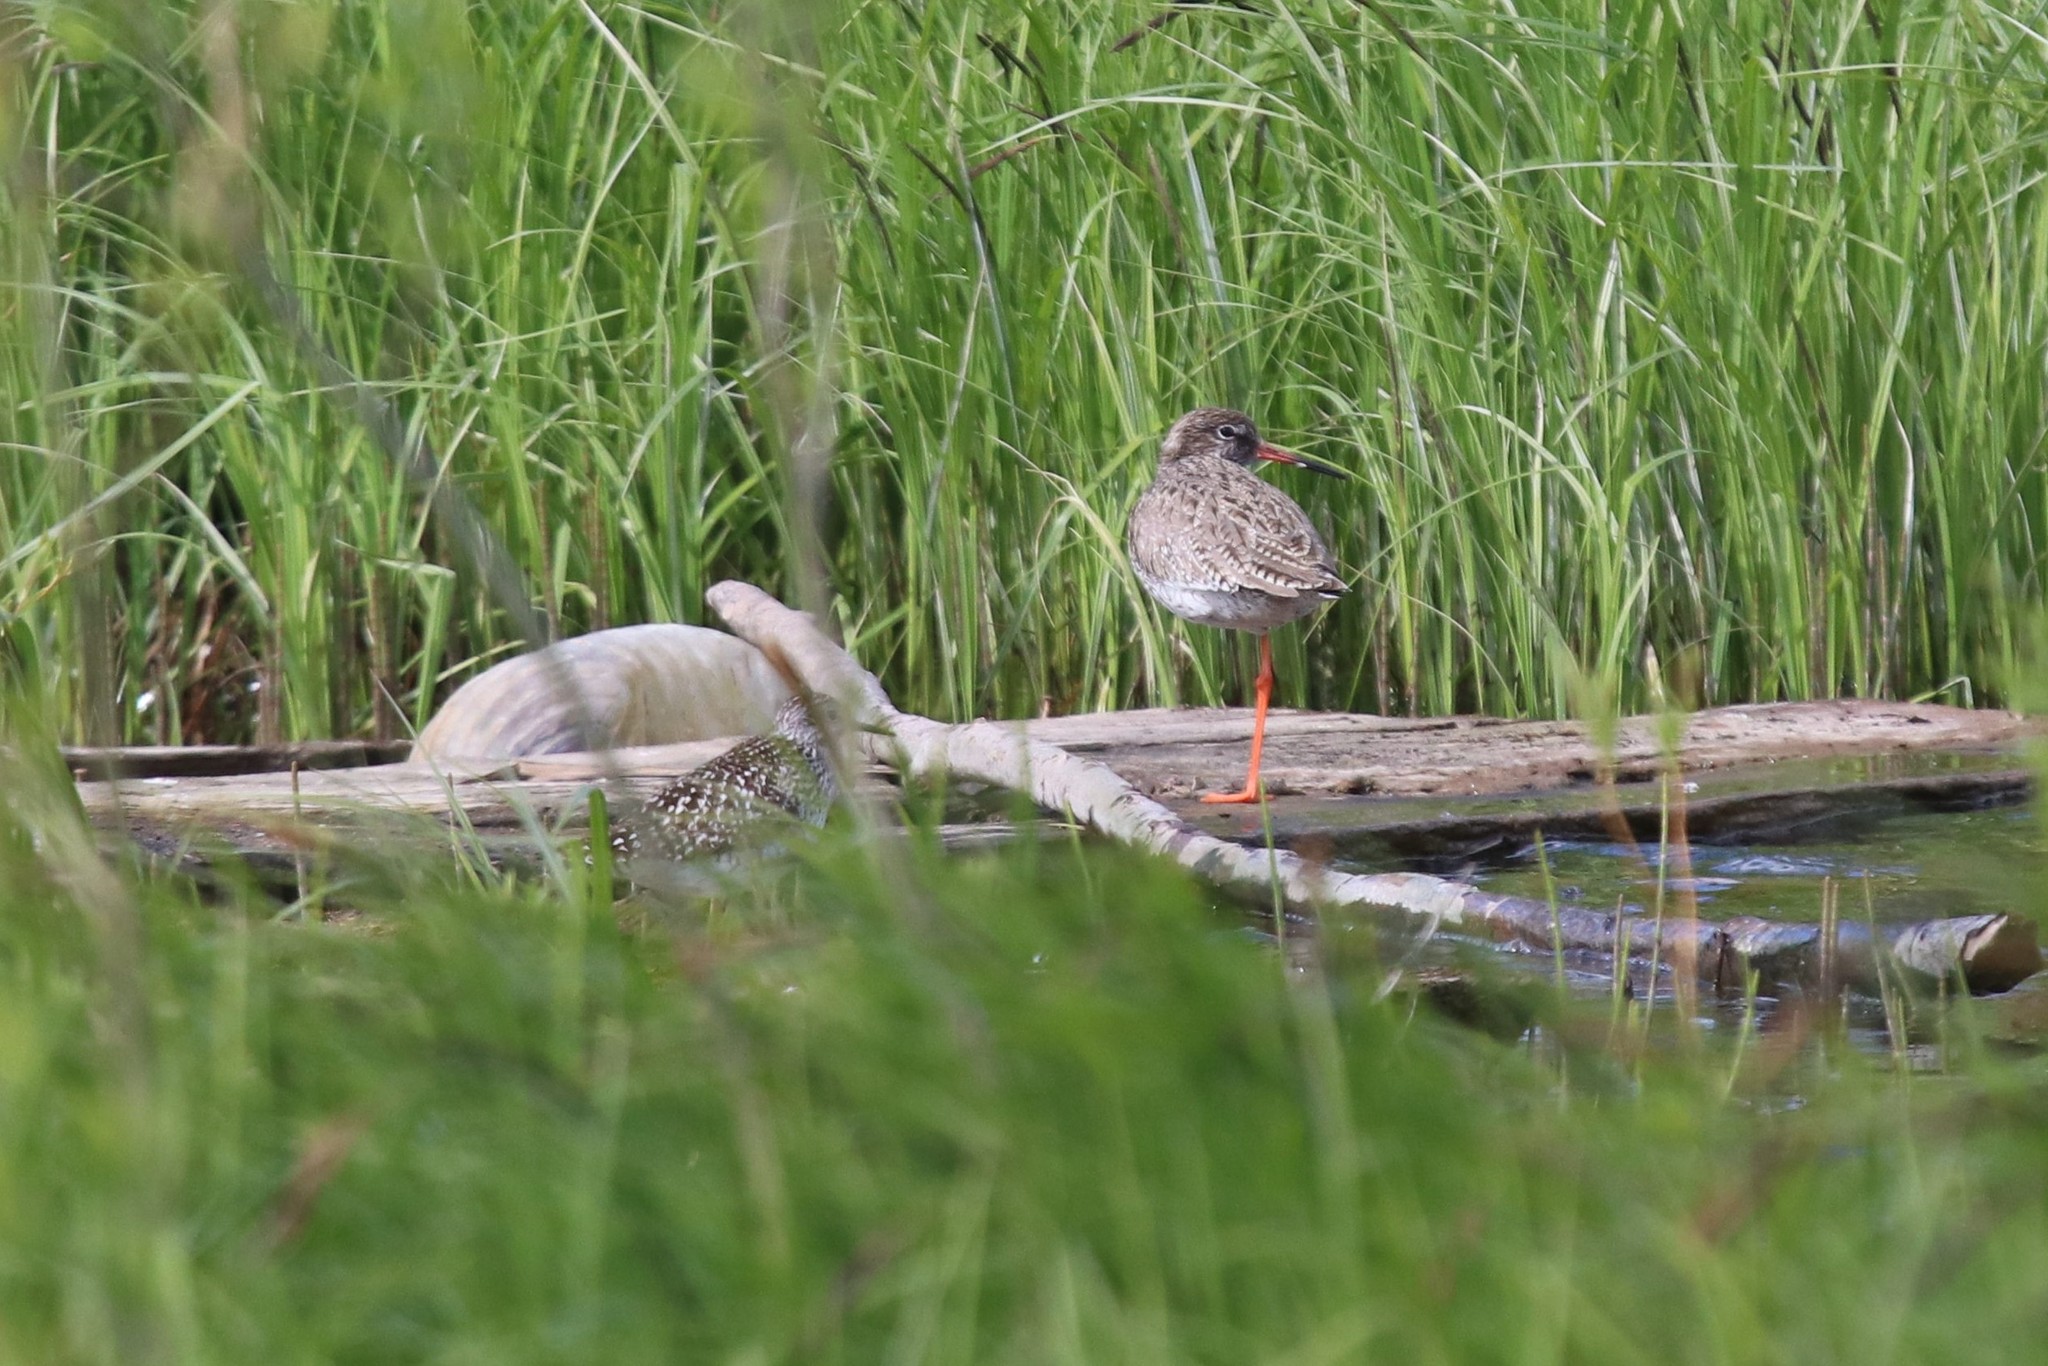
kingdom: Animalia
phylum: Chordata
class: Aves
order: Charadriiformes
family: Scolopacidae
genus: Tringa
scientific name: Tringa totanus
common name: Common redshank
